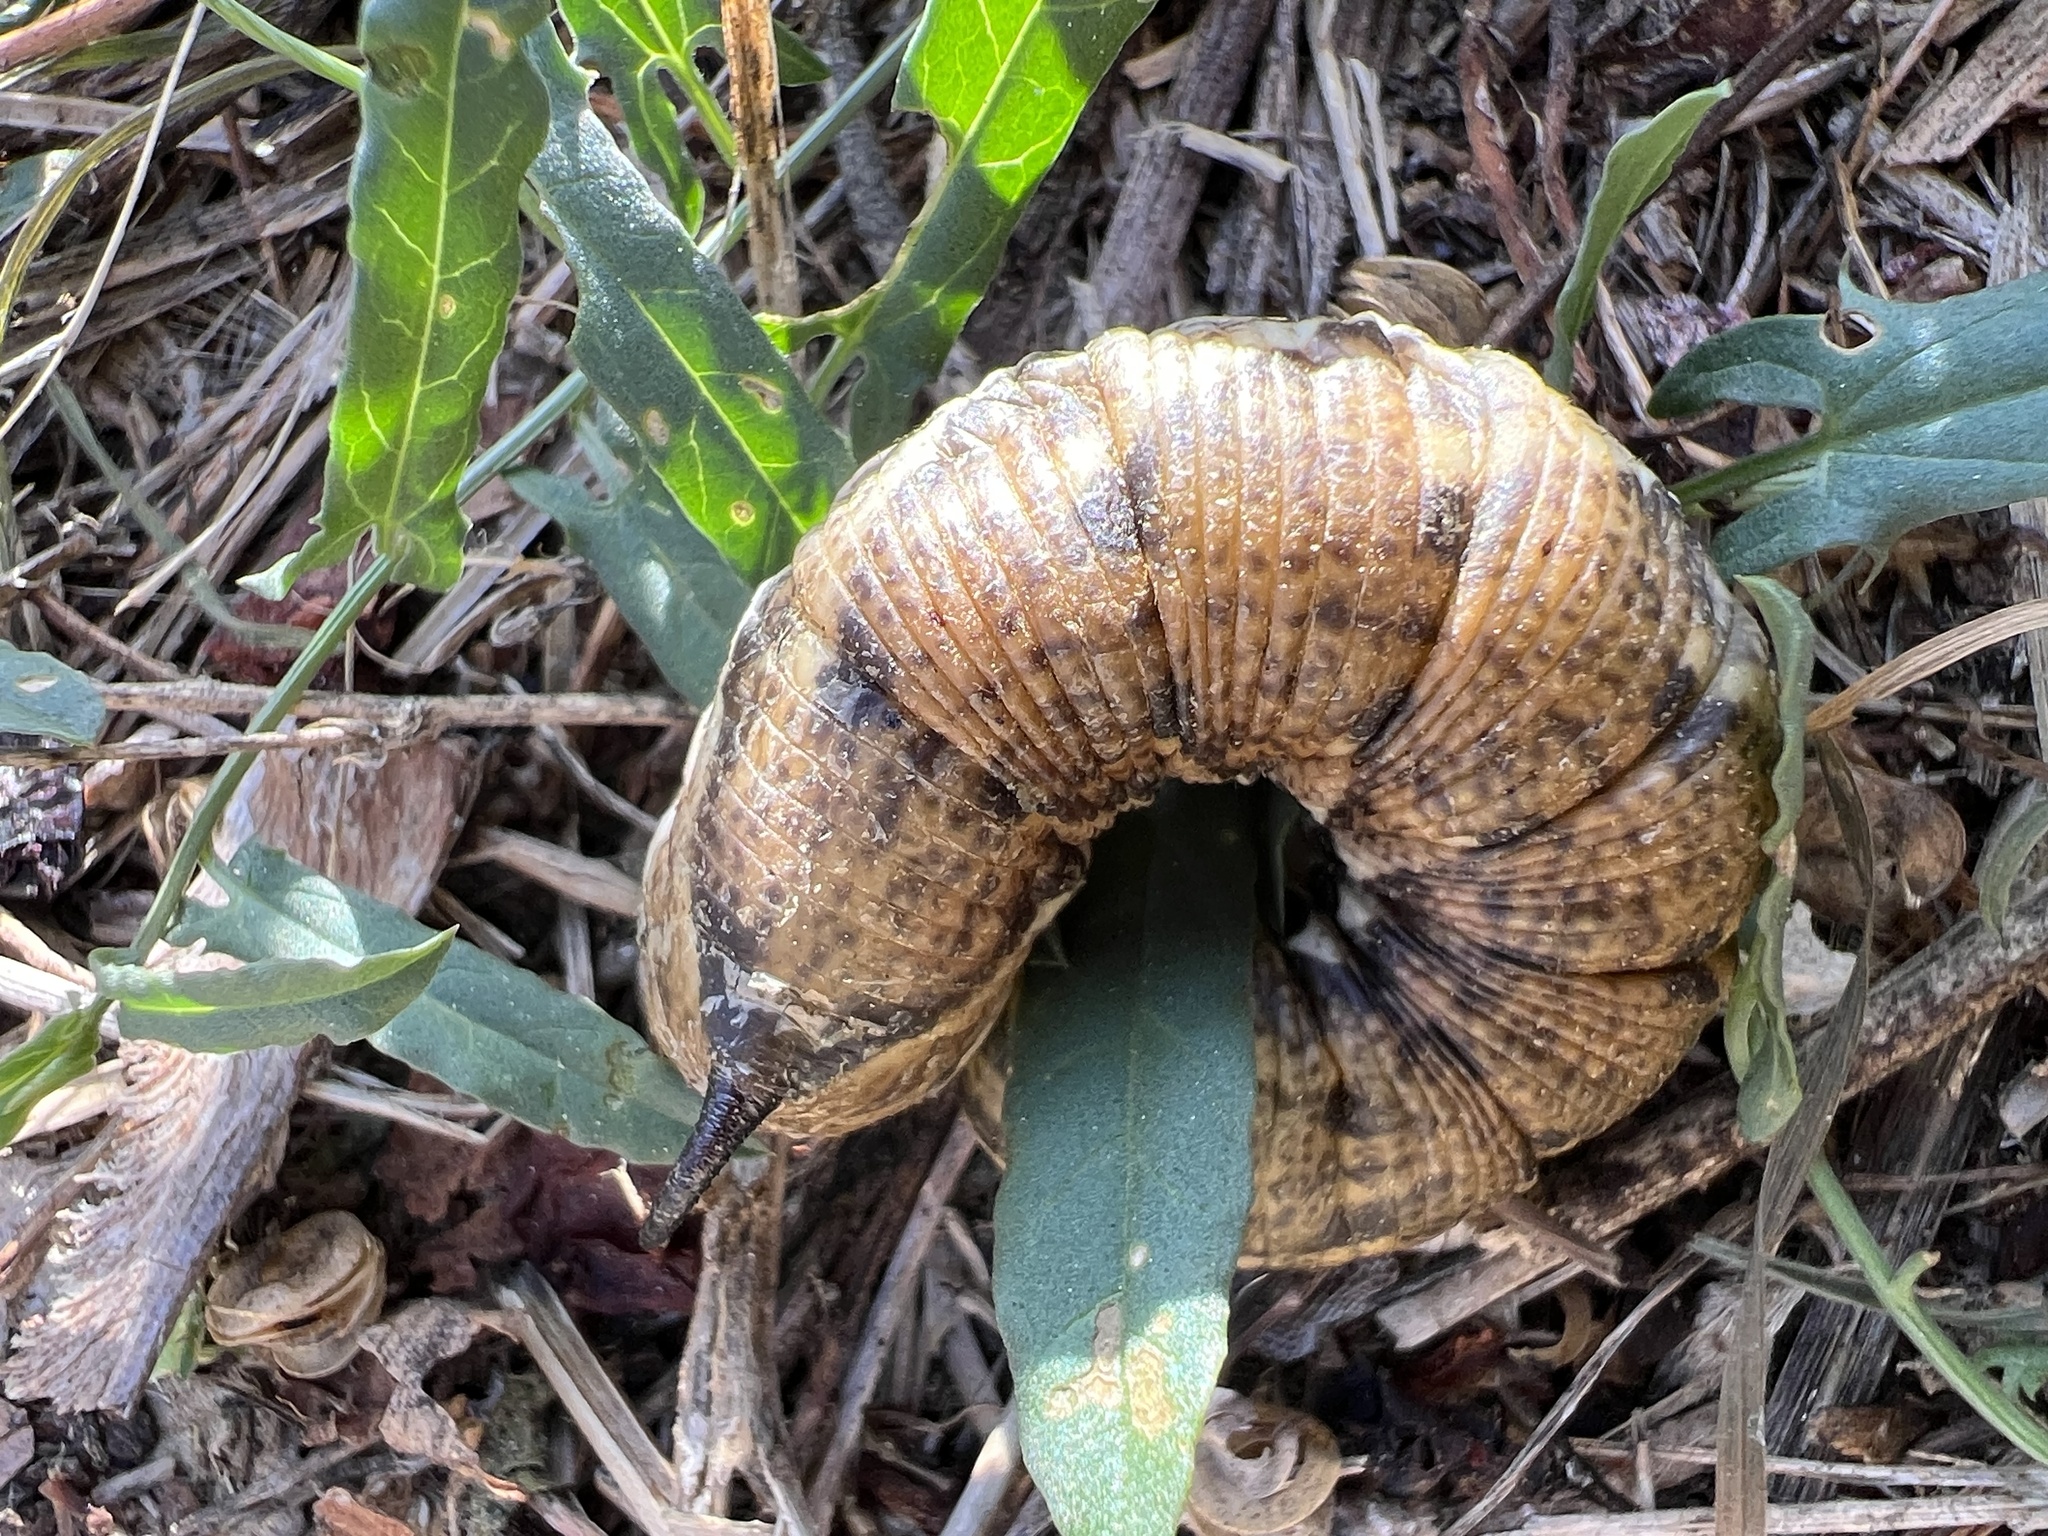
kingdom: Animalia
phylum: Arthropoda
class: Insecta
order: Lepidoptera
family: Sphingidae
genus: Agrius
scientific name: Agrius convolvuli
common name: Convolvulus hawkmoth
